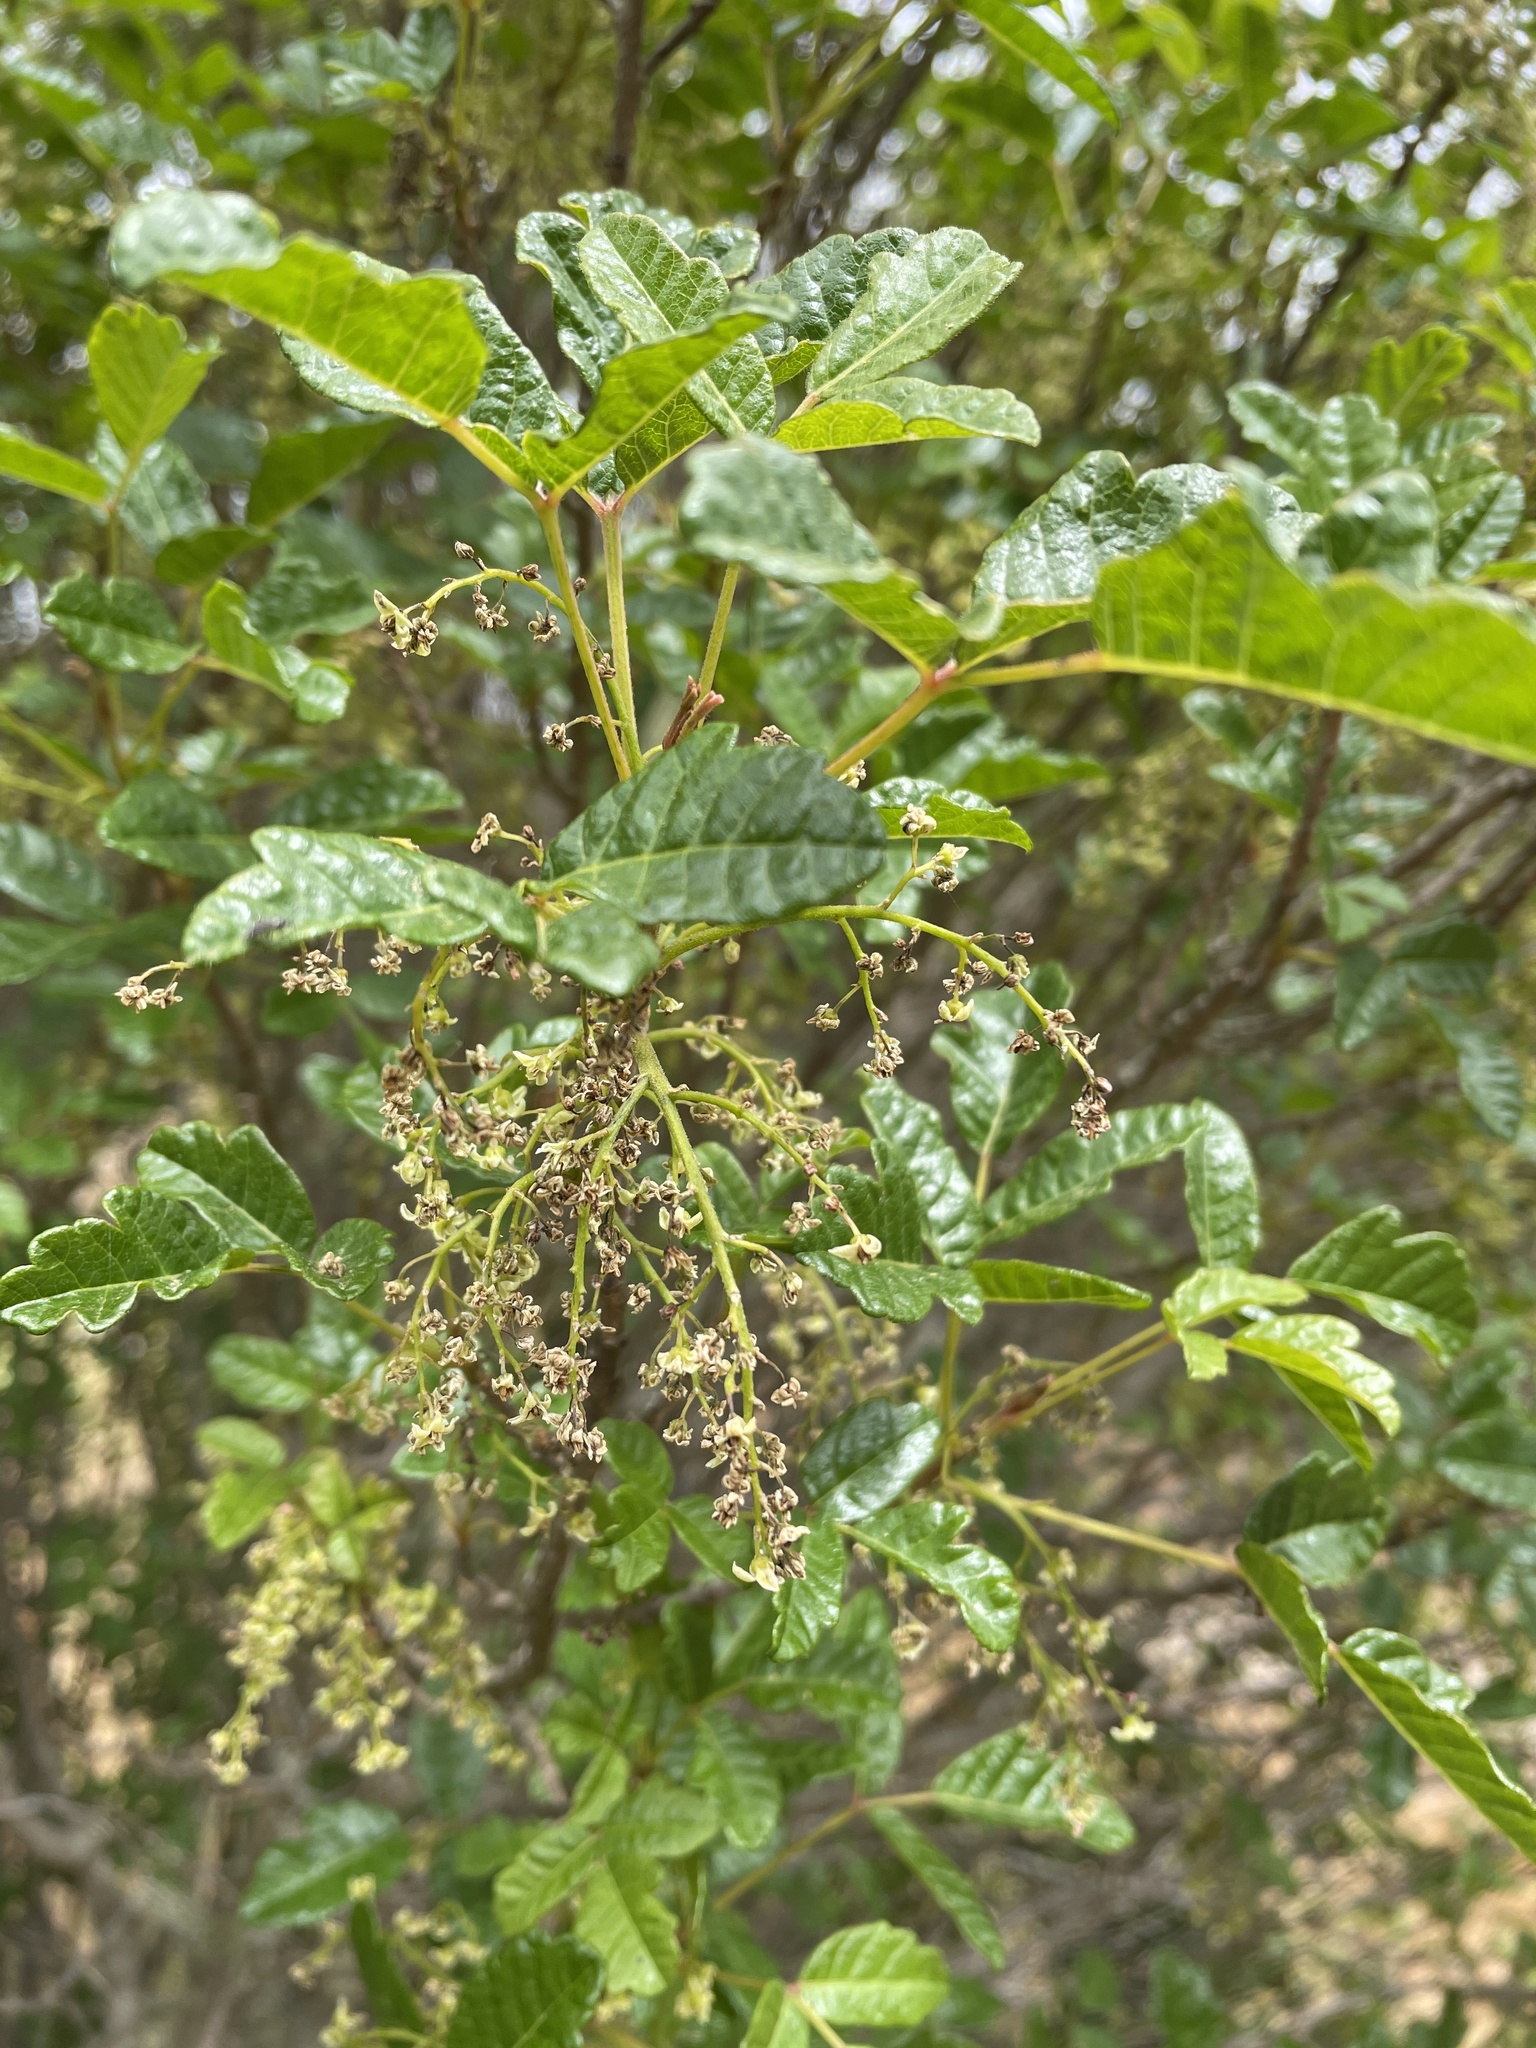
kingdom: Plantae
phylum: Tracheophyta
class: Magnoliopsida
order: Sapindales
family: Anacardiaceae
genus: Toxicodendron
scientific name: Toxicodendron diversilobum
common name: Pacific poison-oak
